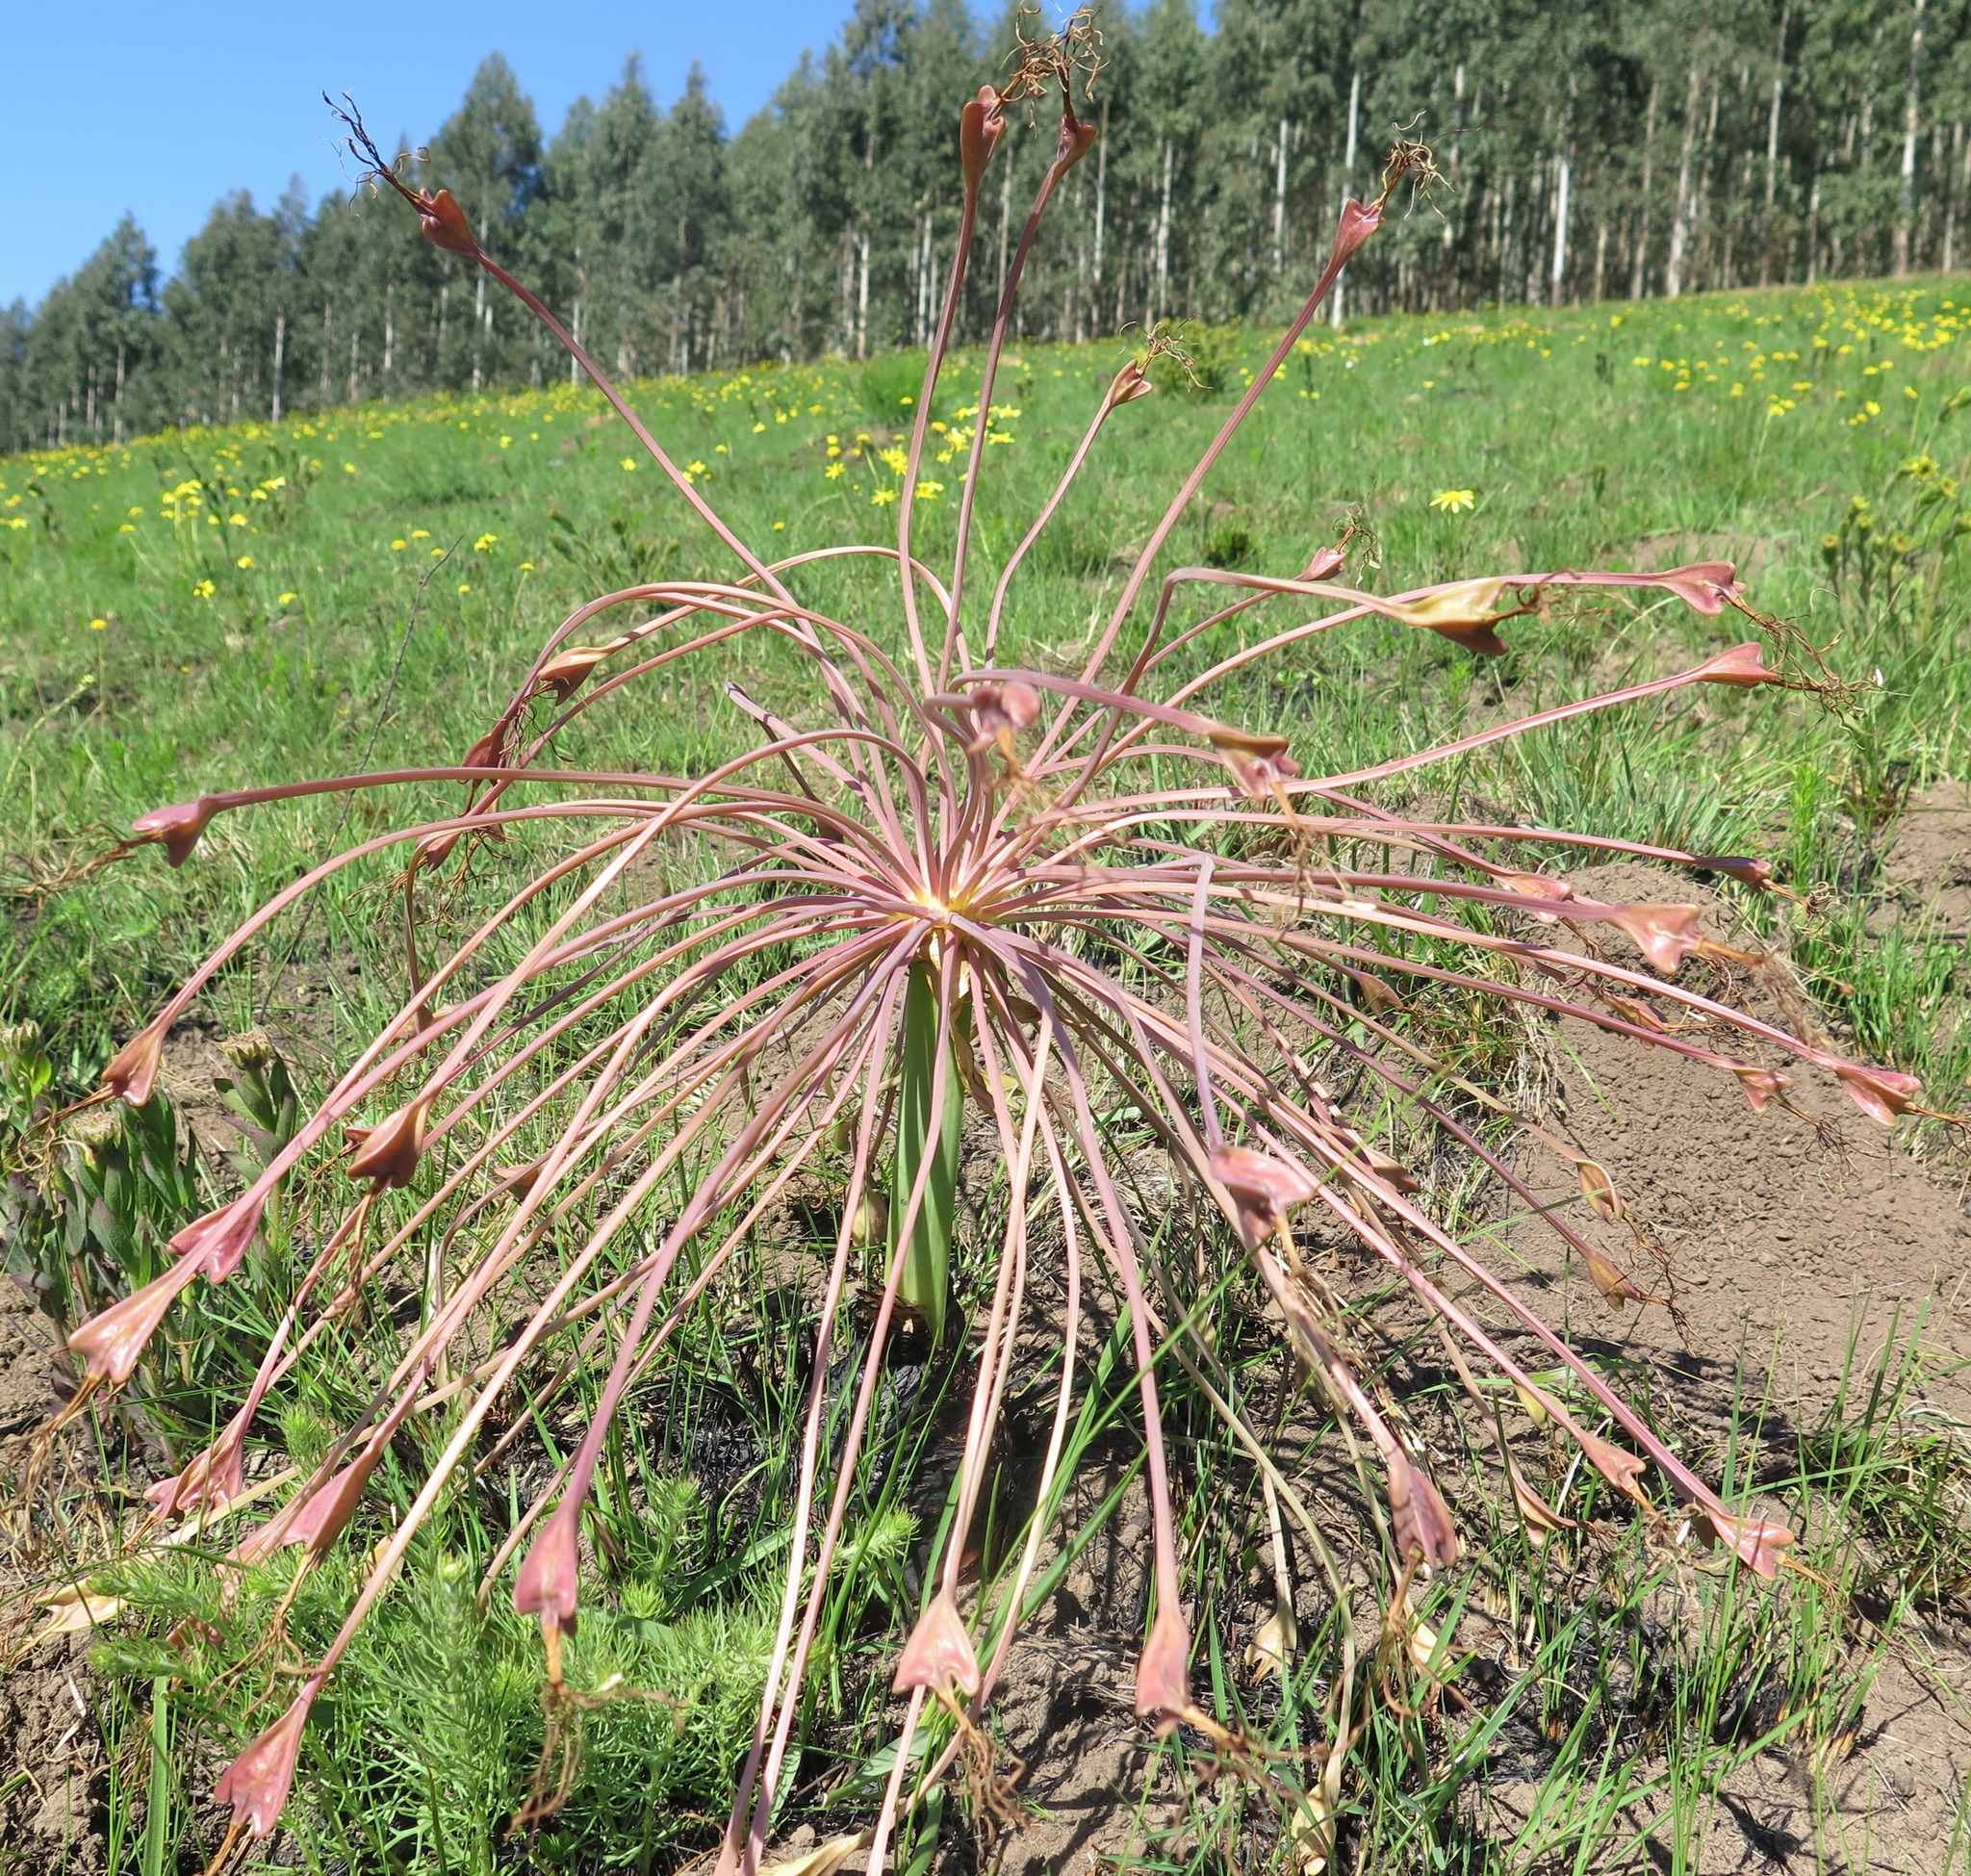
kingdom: Plantae
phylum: Tracheophyta
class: Liliopsida
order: Asparagales
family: Amaryllidaceae
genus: Boophone
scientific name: Boophone disticha
